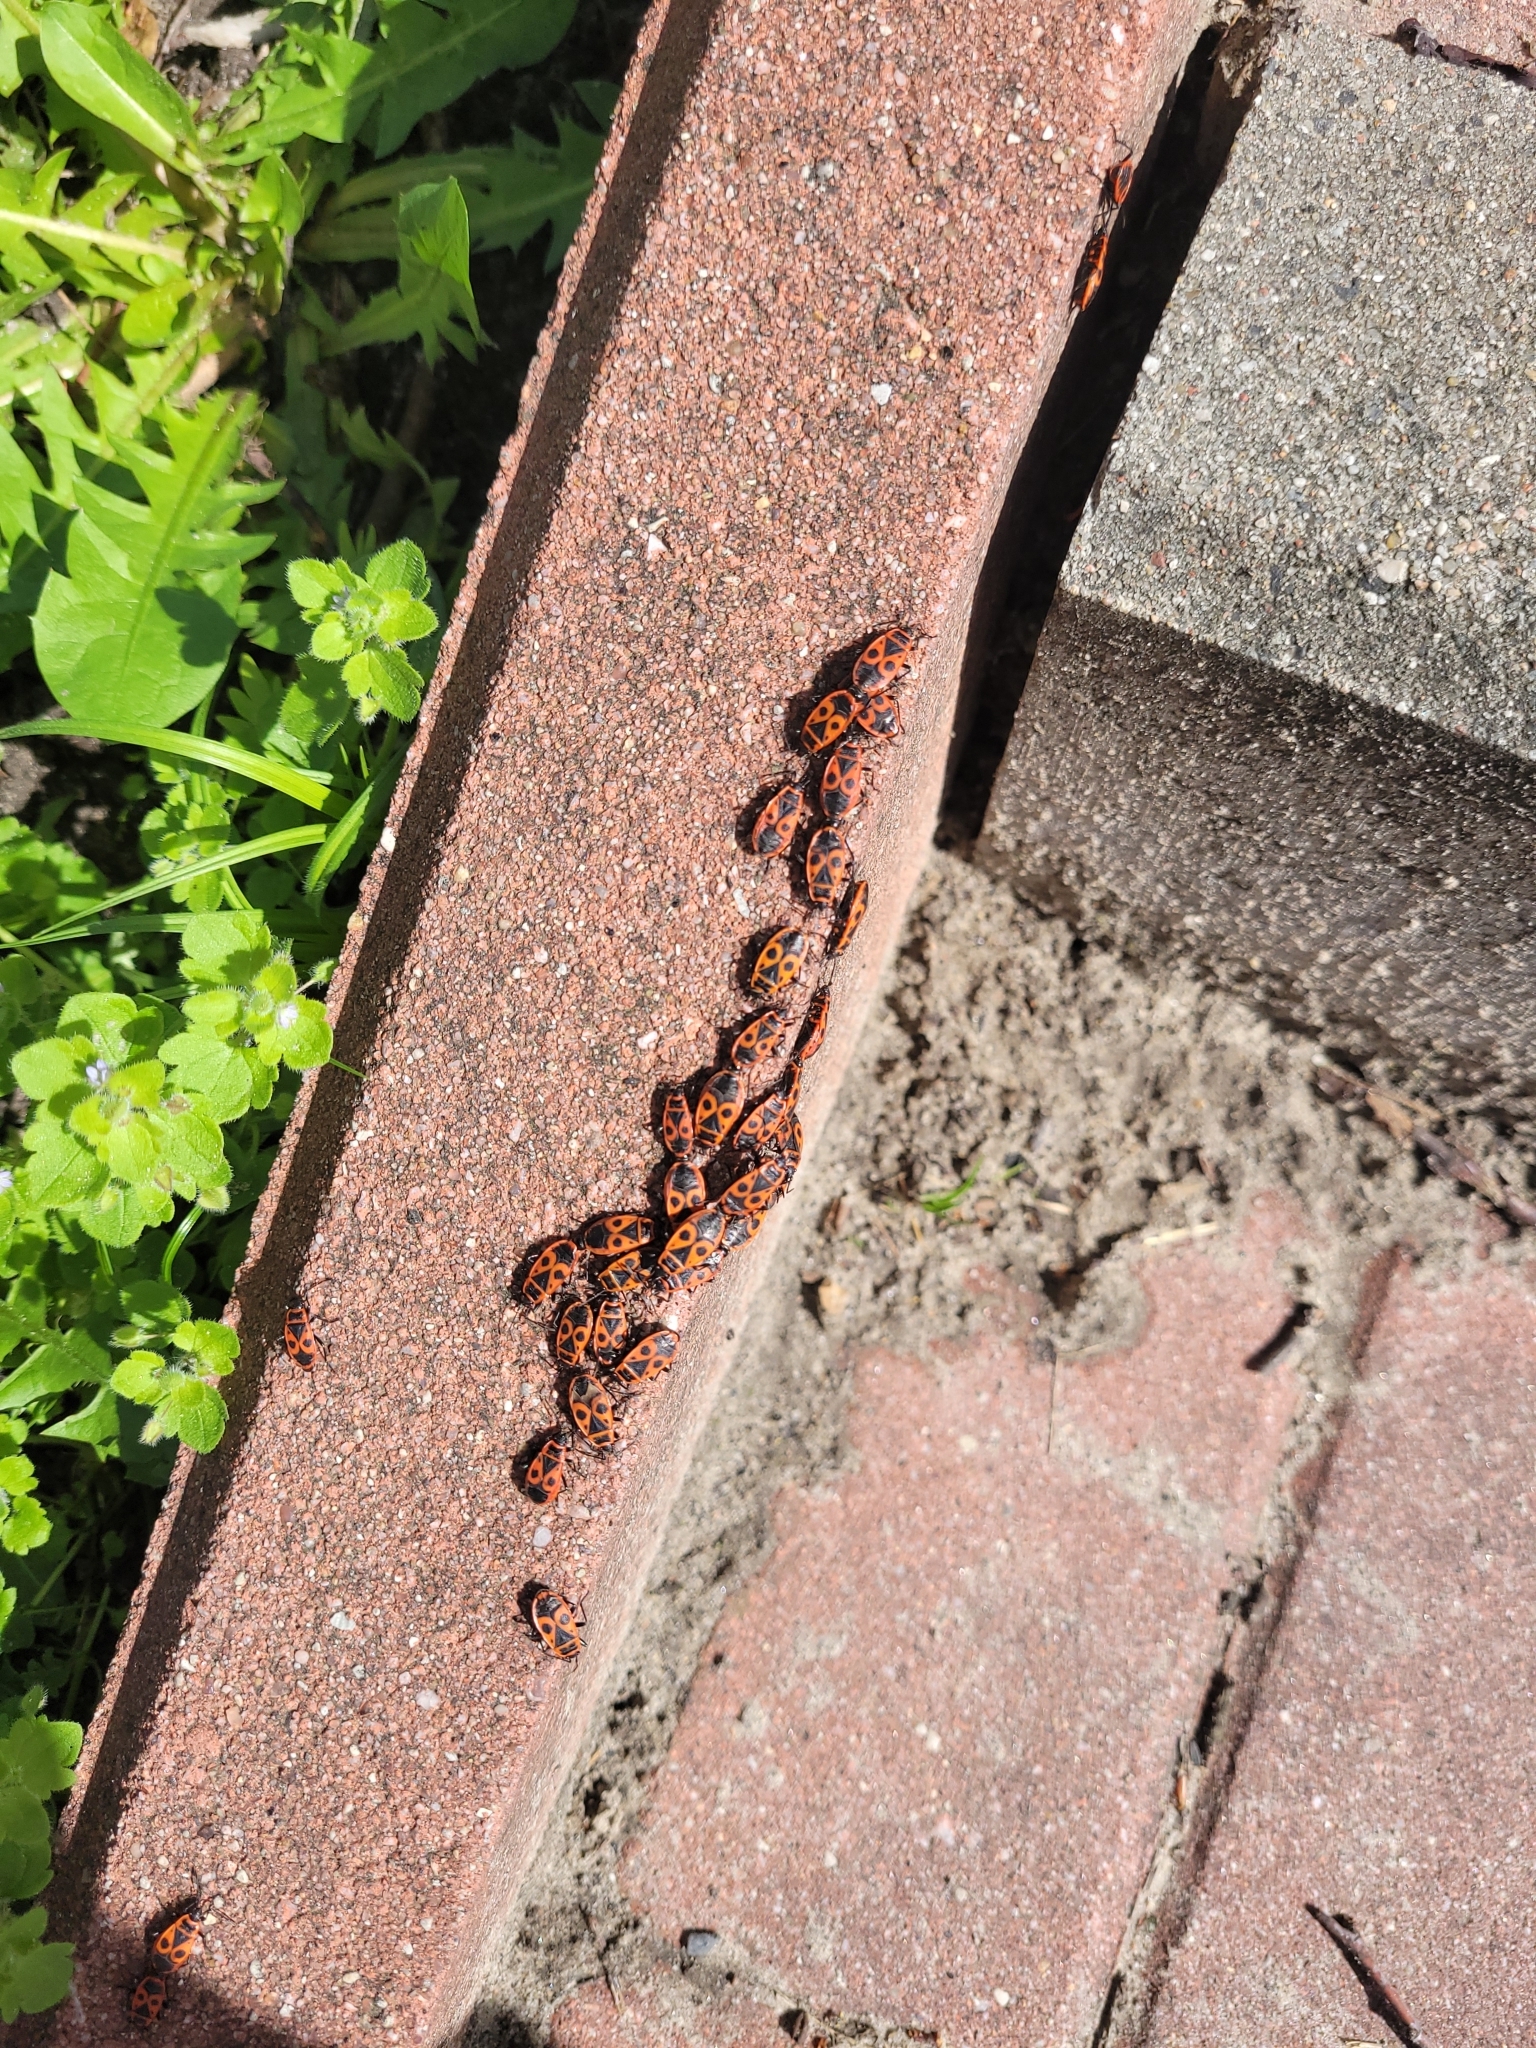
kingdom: Animalia
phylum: Arthropoda
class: Insecta
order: Hemiptera
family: Pyrrhocoridae
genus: Pyrrhocoris
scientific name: Pyrrhocoris apterus
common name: Firebug
